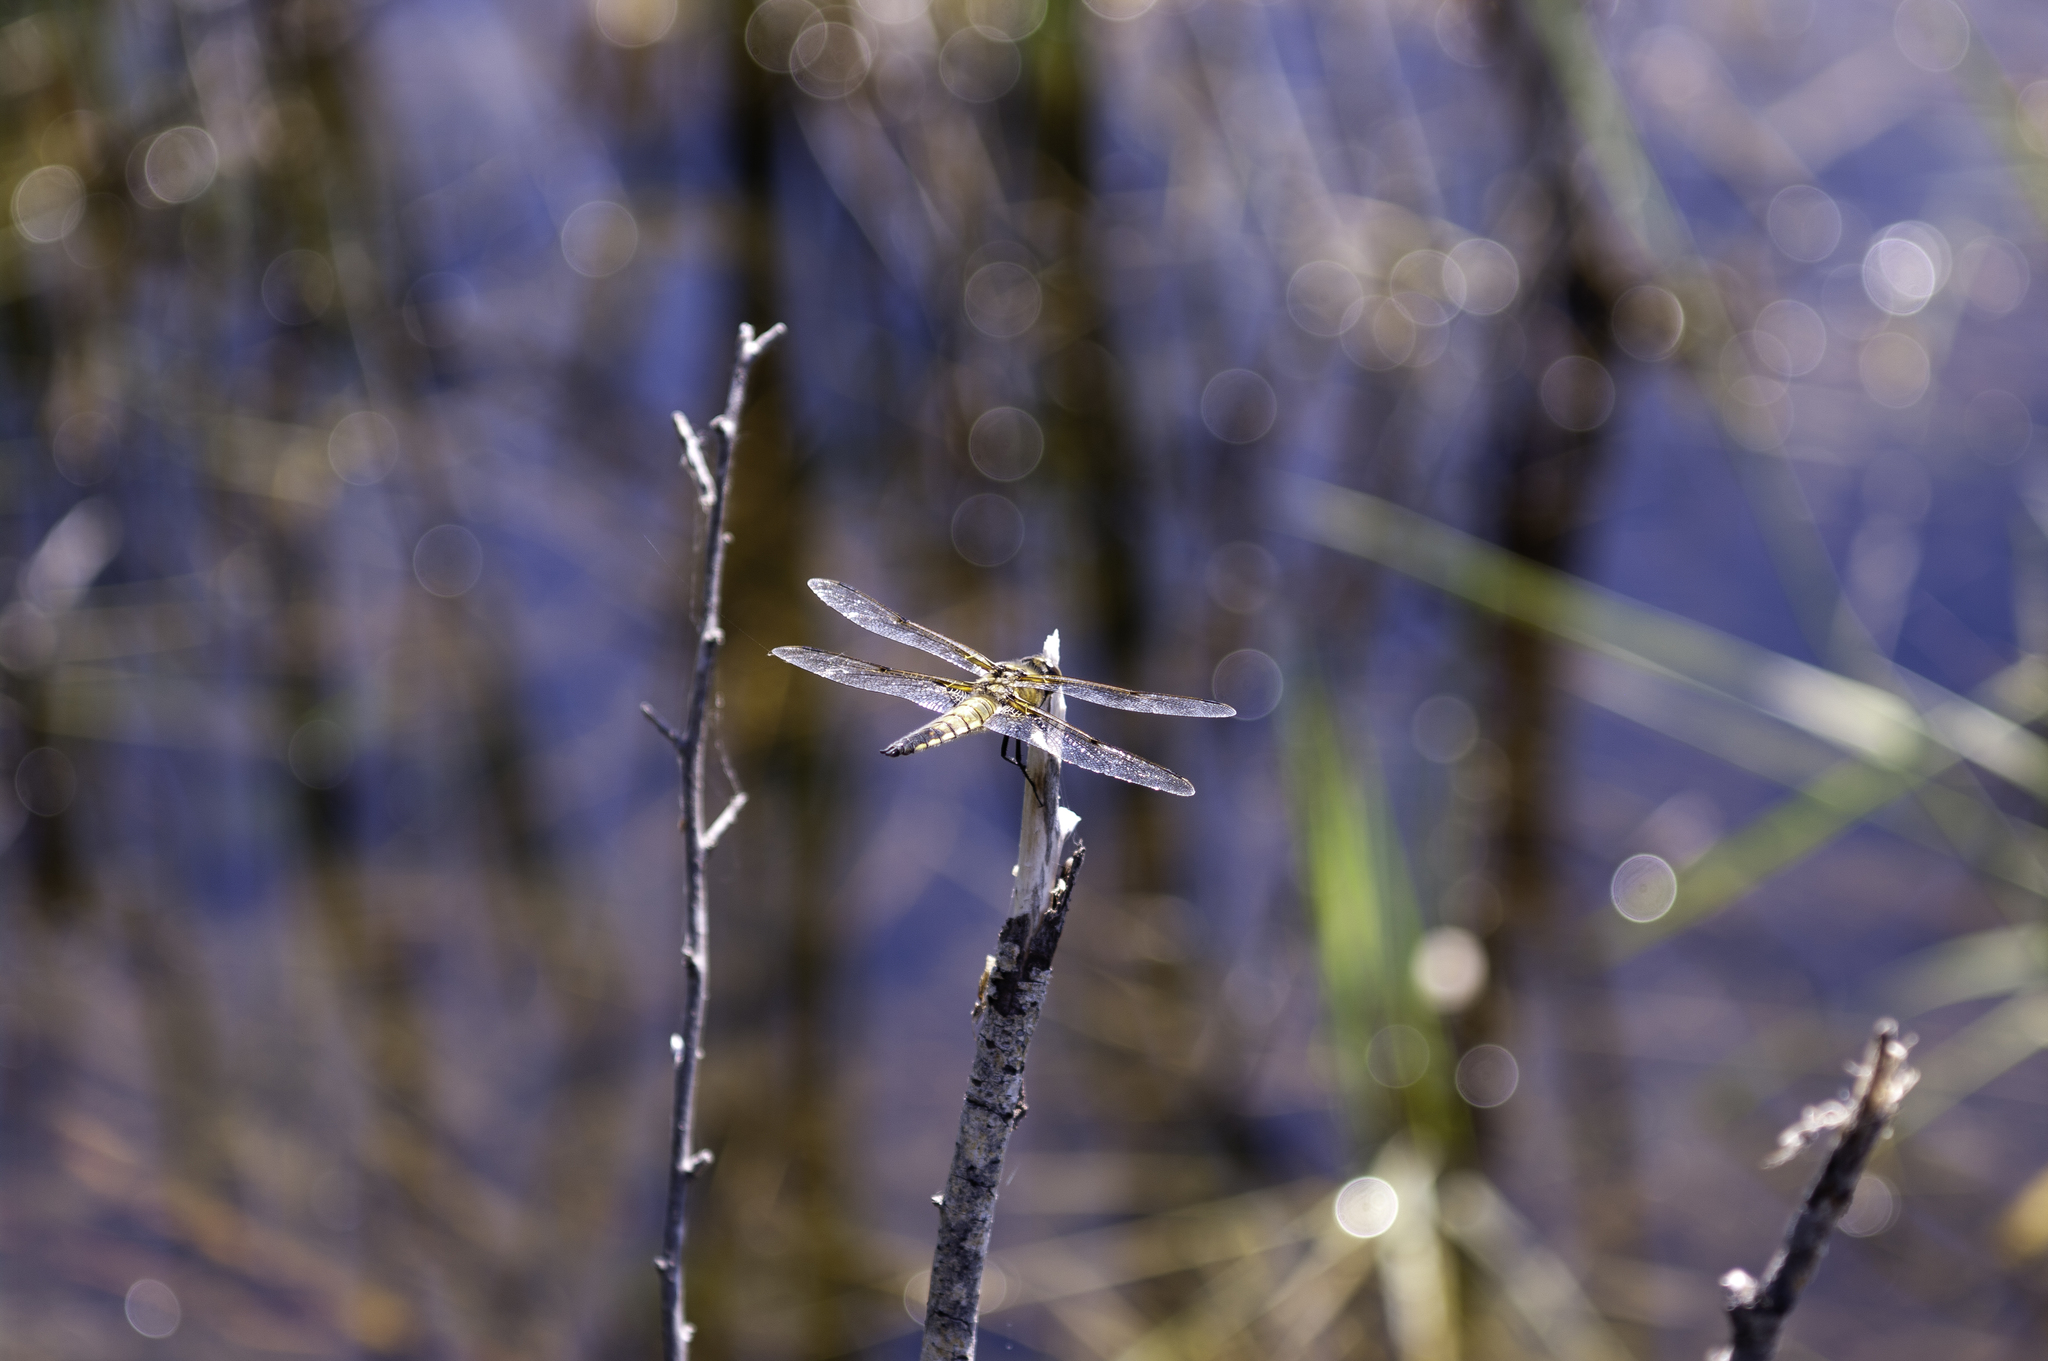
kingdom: Animalia
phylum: Arthropoda
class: Insecta
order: Odonata
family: Libellulidae
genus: Libellula
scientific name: Libellula quadrimaculata
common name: Four-spotted chaser
